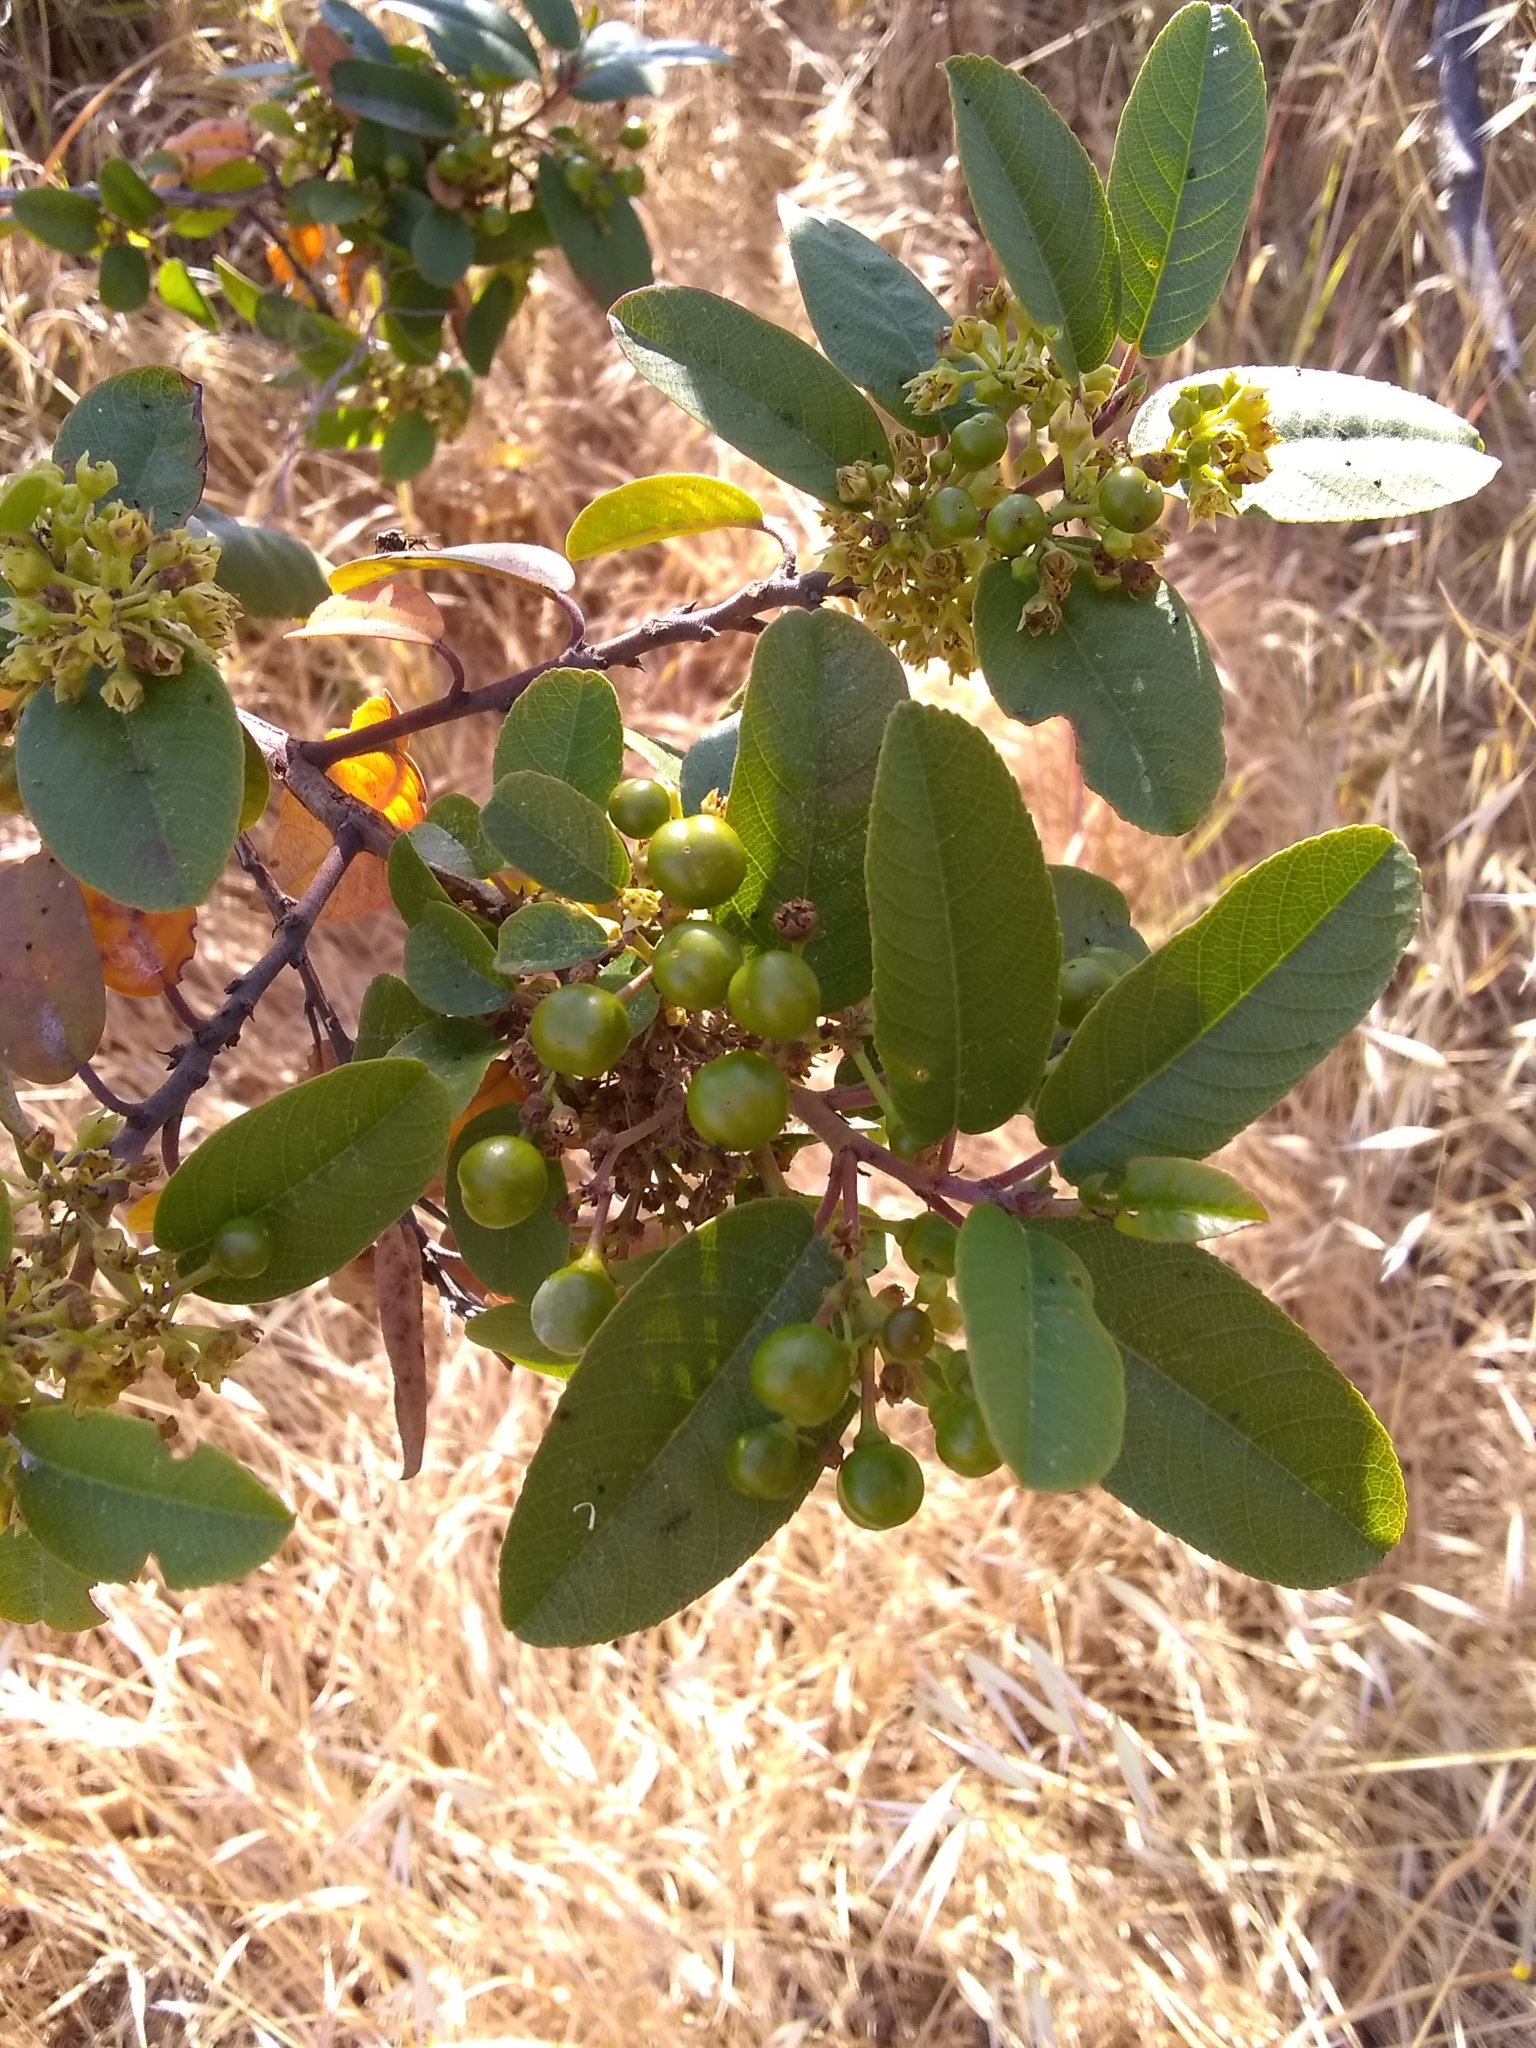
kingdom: Plantae
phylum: Tracheophyta
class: Magnoliopsida
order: Rosales
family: Rhamnaceae
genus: Frangula
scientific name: Frangula californica
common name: California buckthorn
